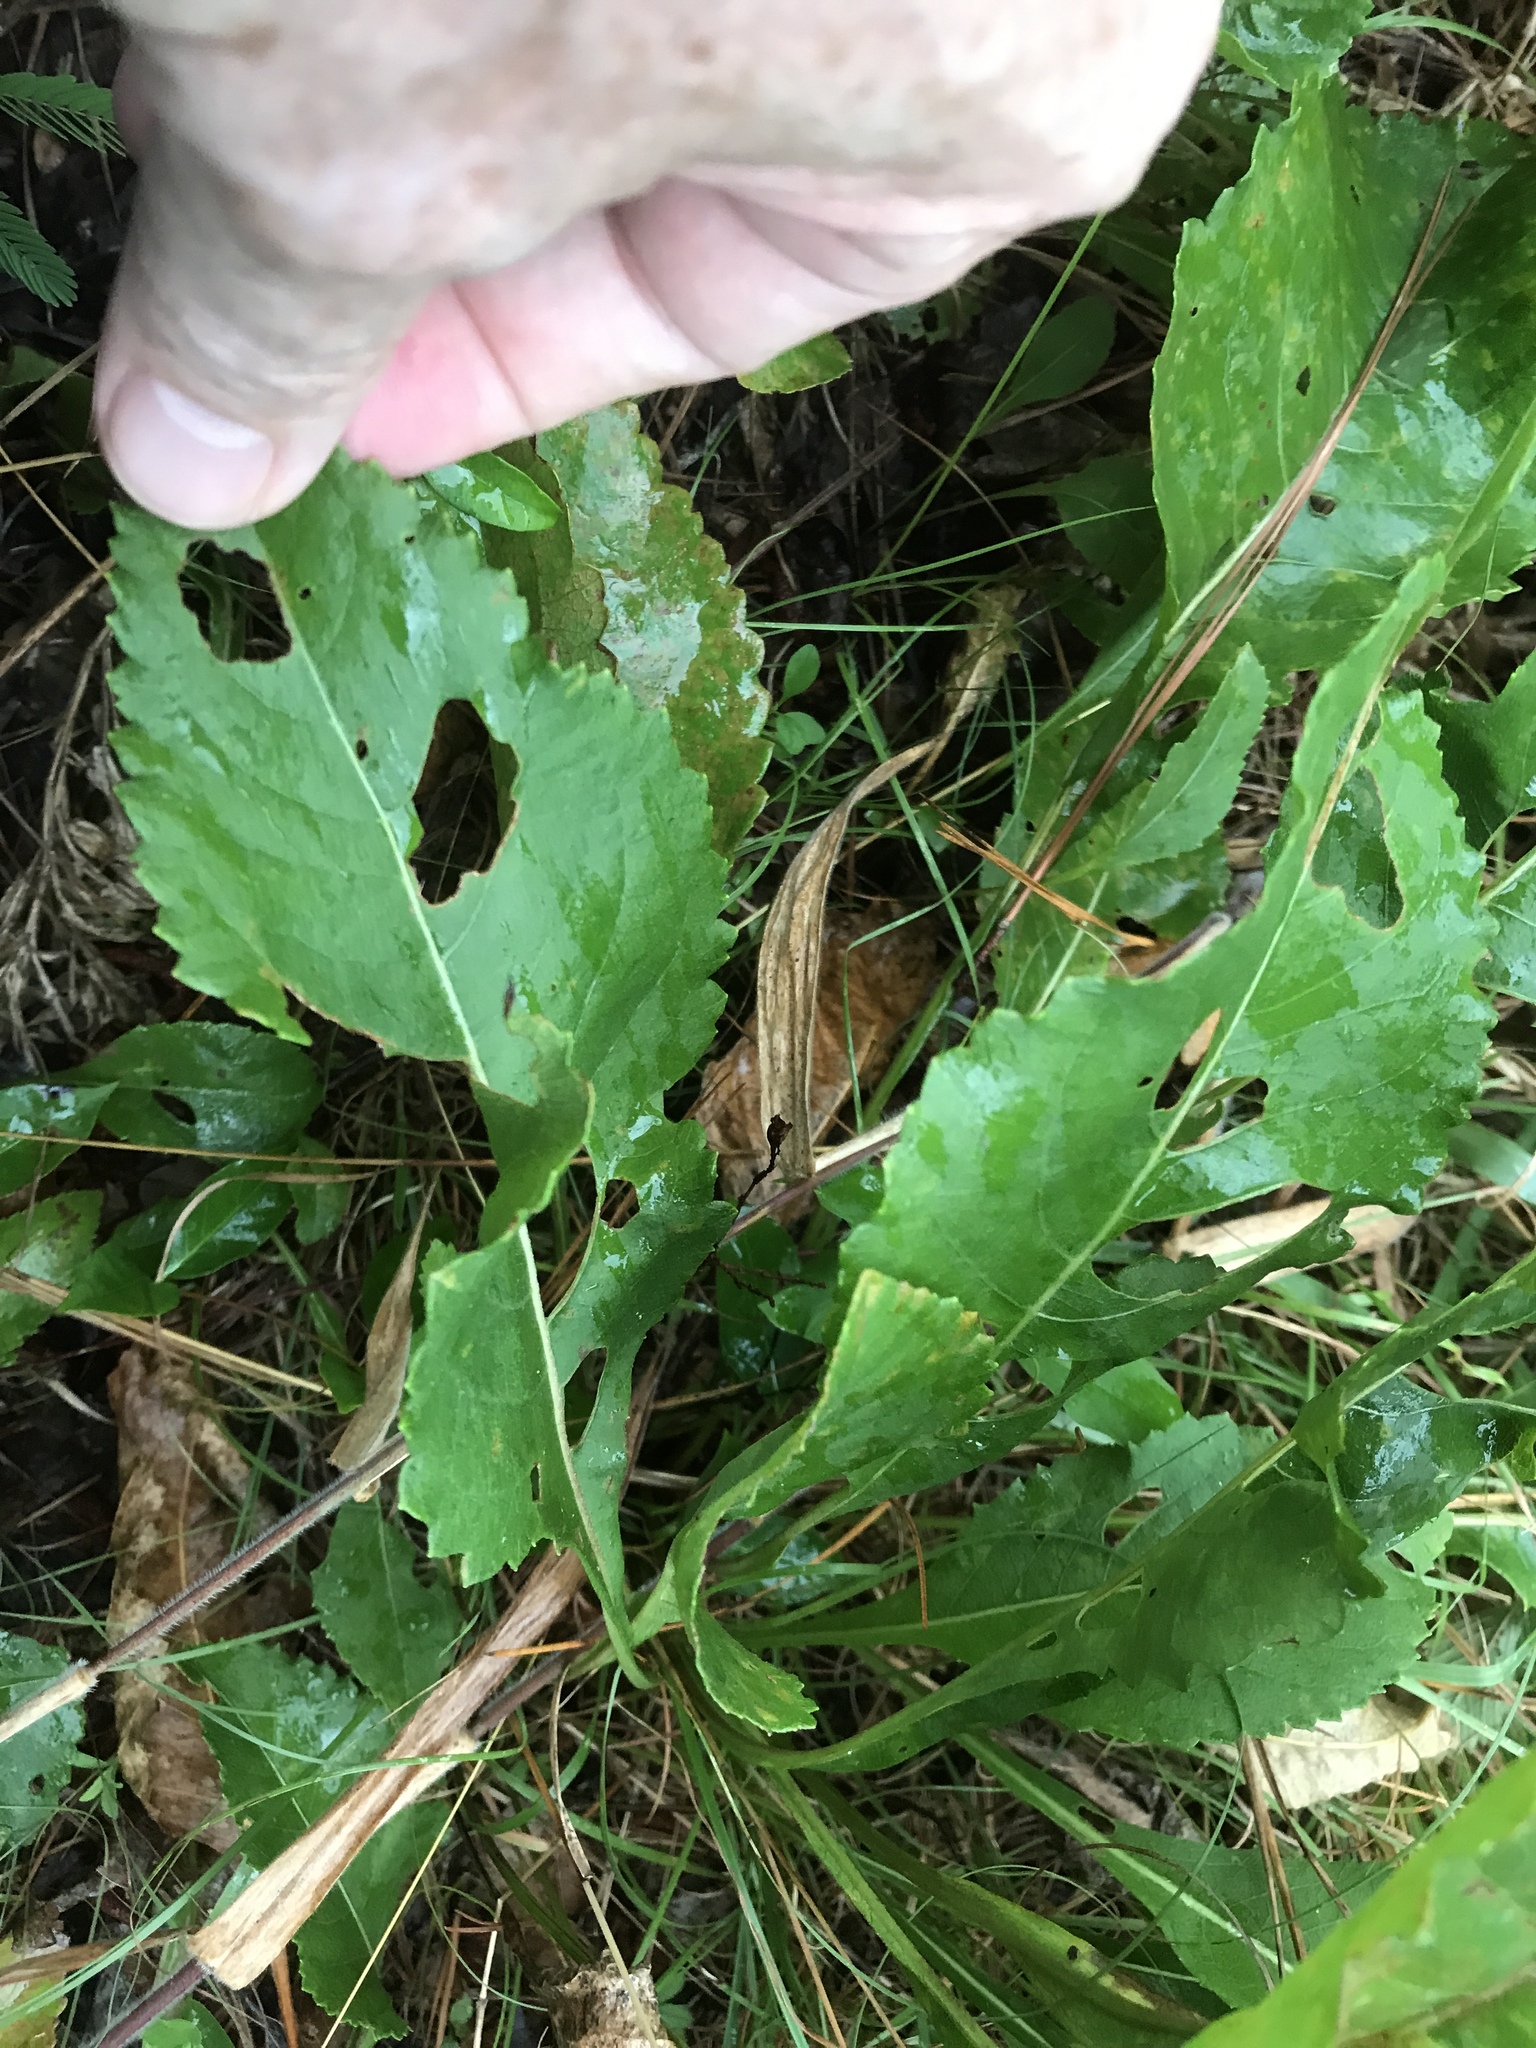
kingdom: Plantae
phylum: Tracheophyta
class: Magnoliopsida
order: Asterales
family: Asteraceae
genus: Parthenium
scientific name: Parthenium integrifolium
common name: American feverfew
